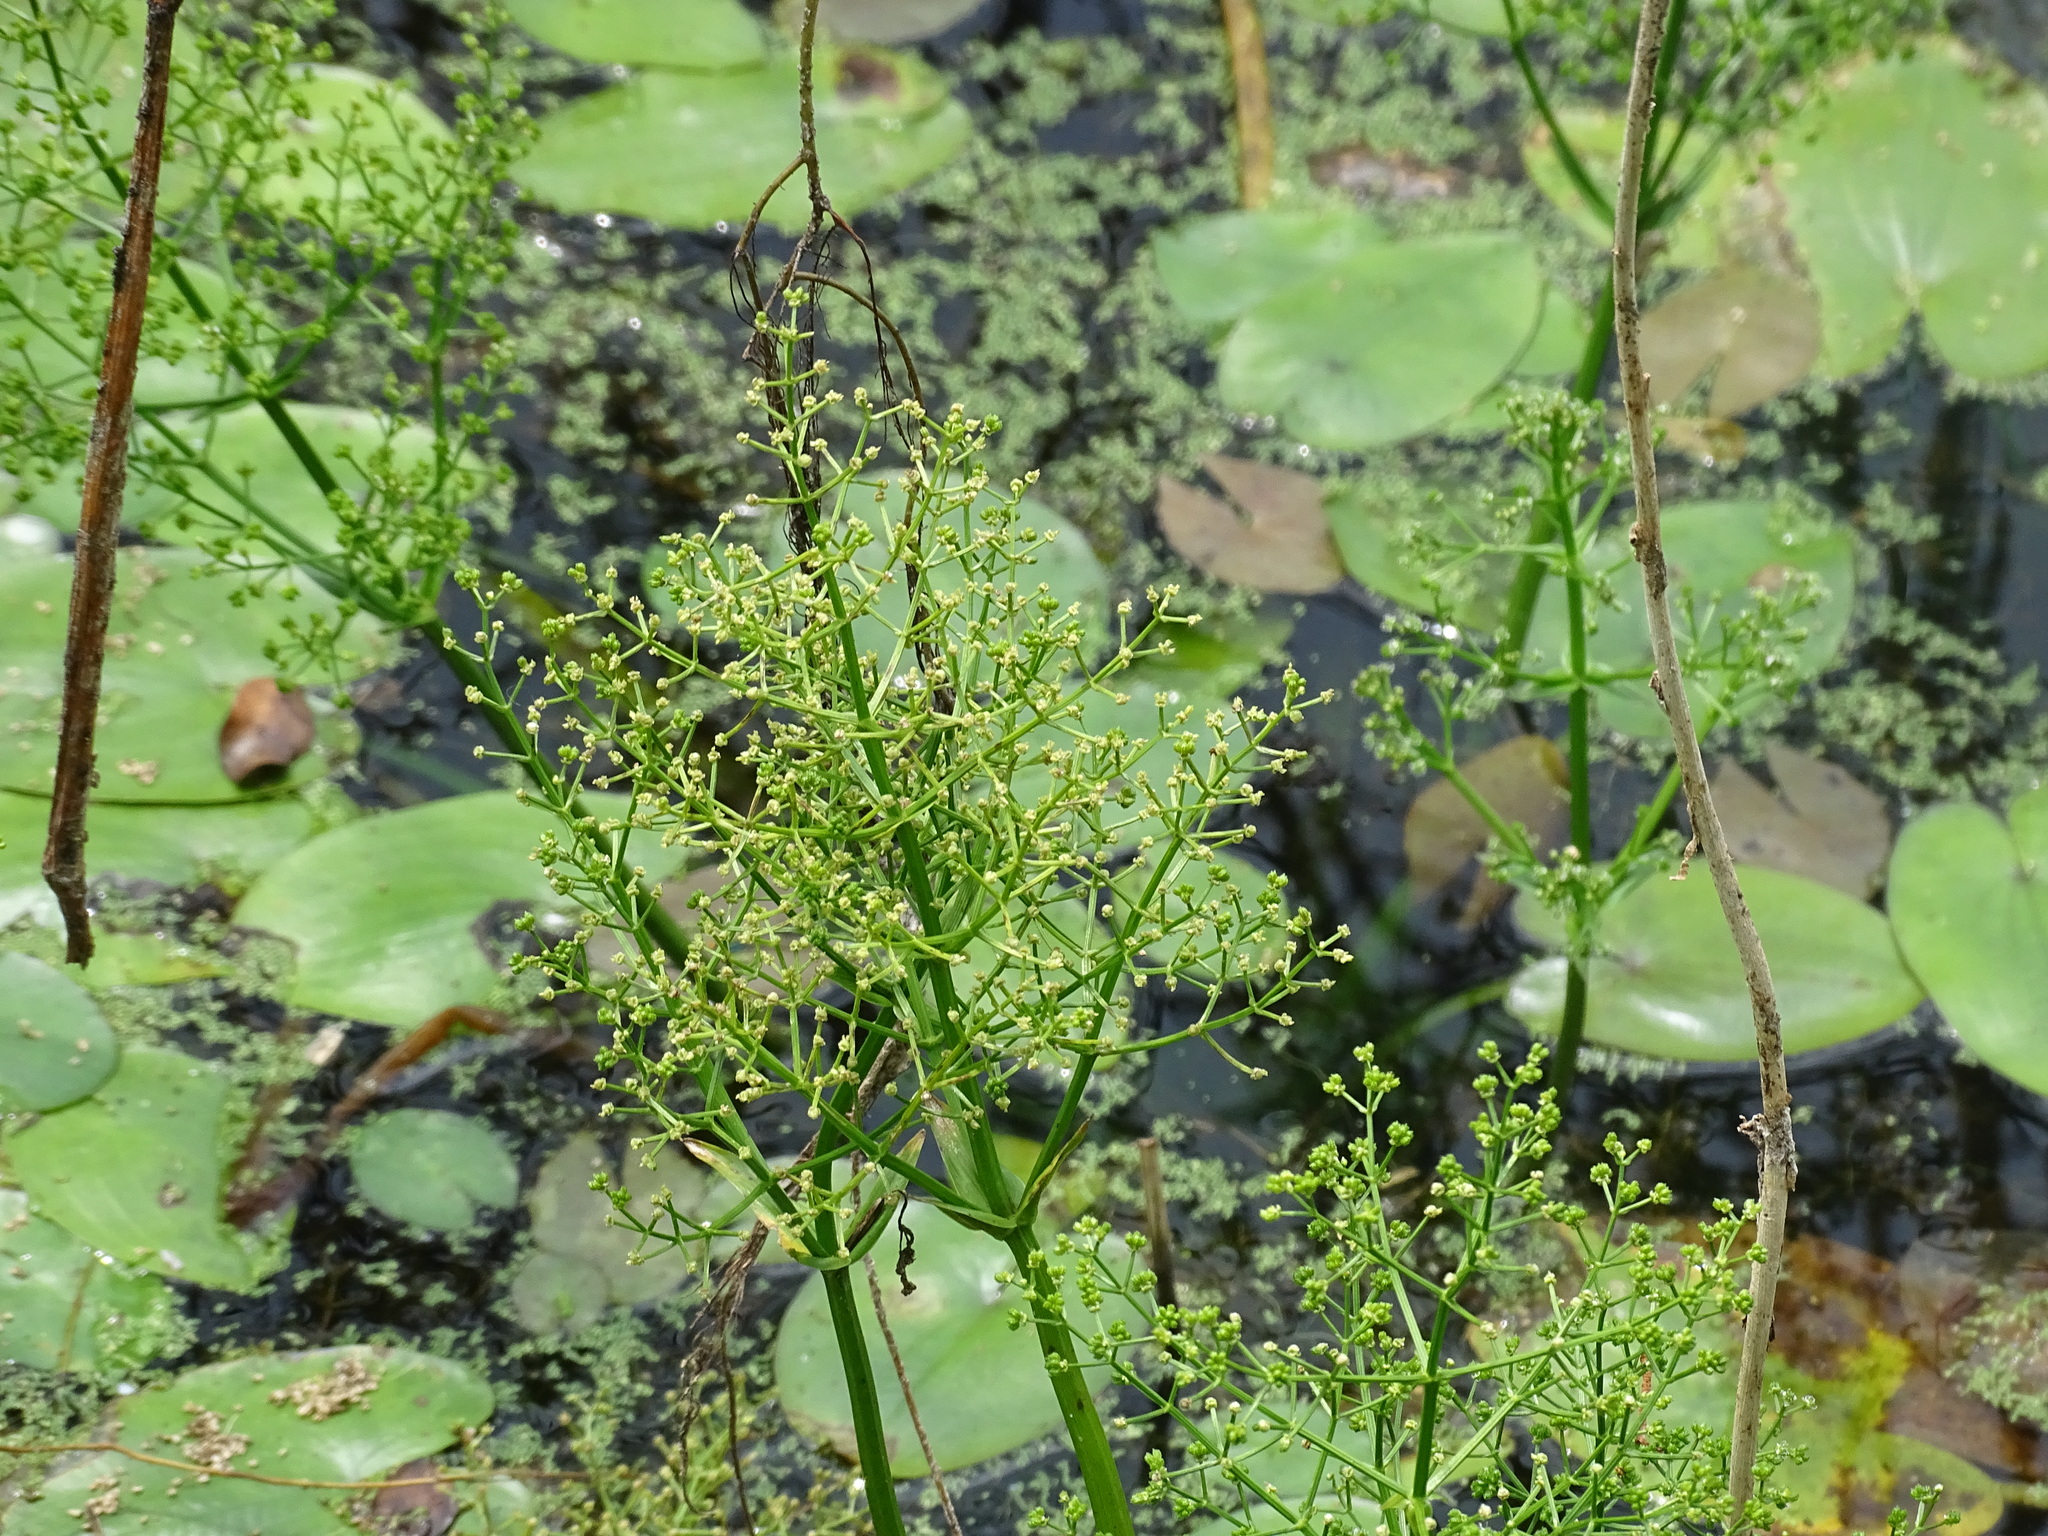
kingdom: Plantae
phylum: Tracheophyta
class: Liliopsida
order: Alismatales
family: Alismataceae
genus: Albidella
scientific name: Albidella nymphaeifolia
